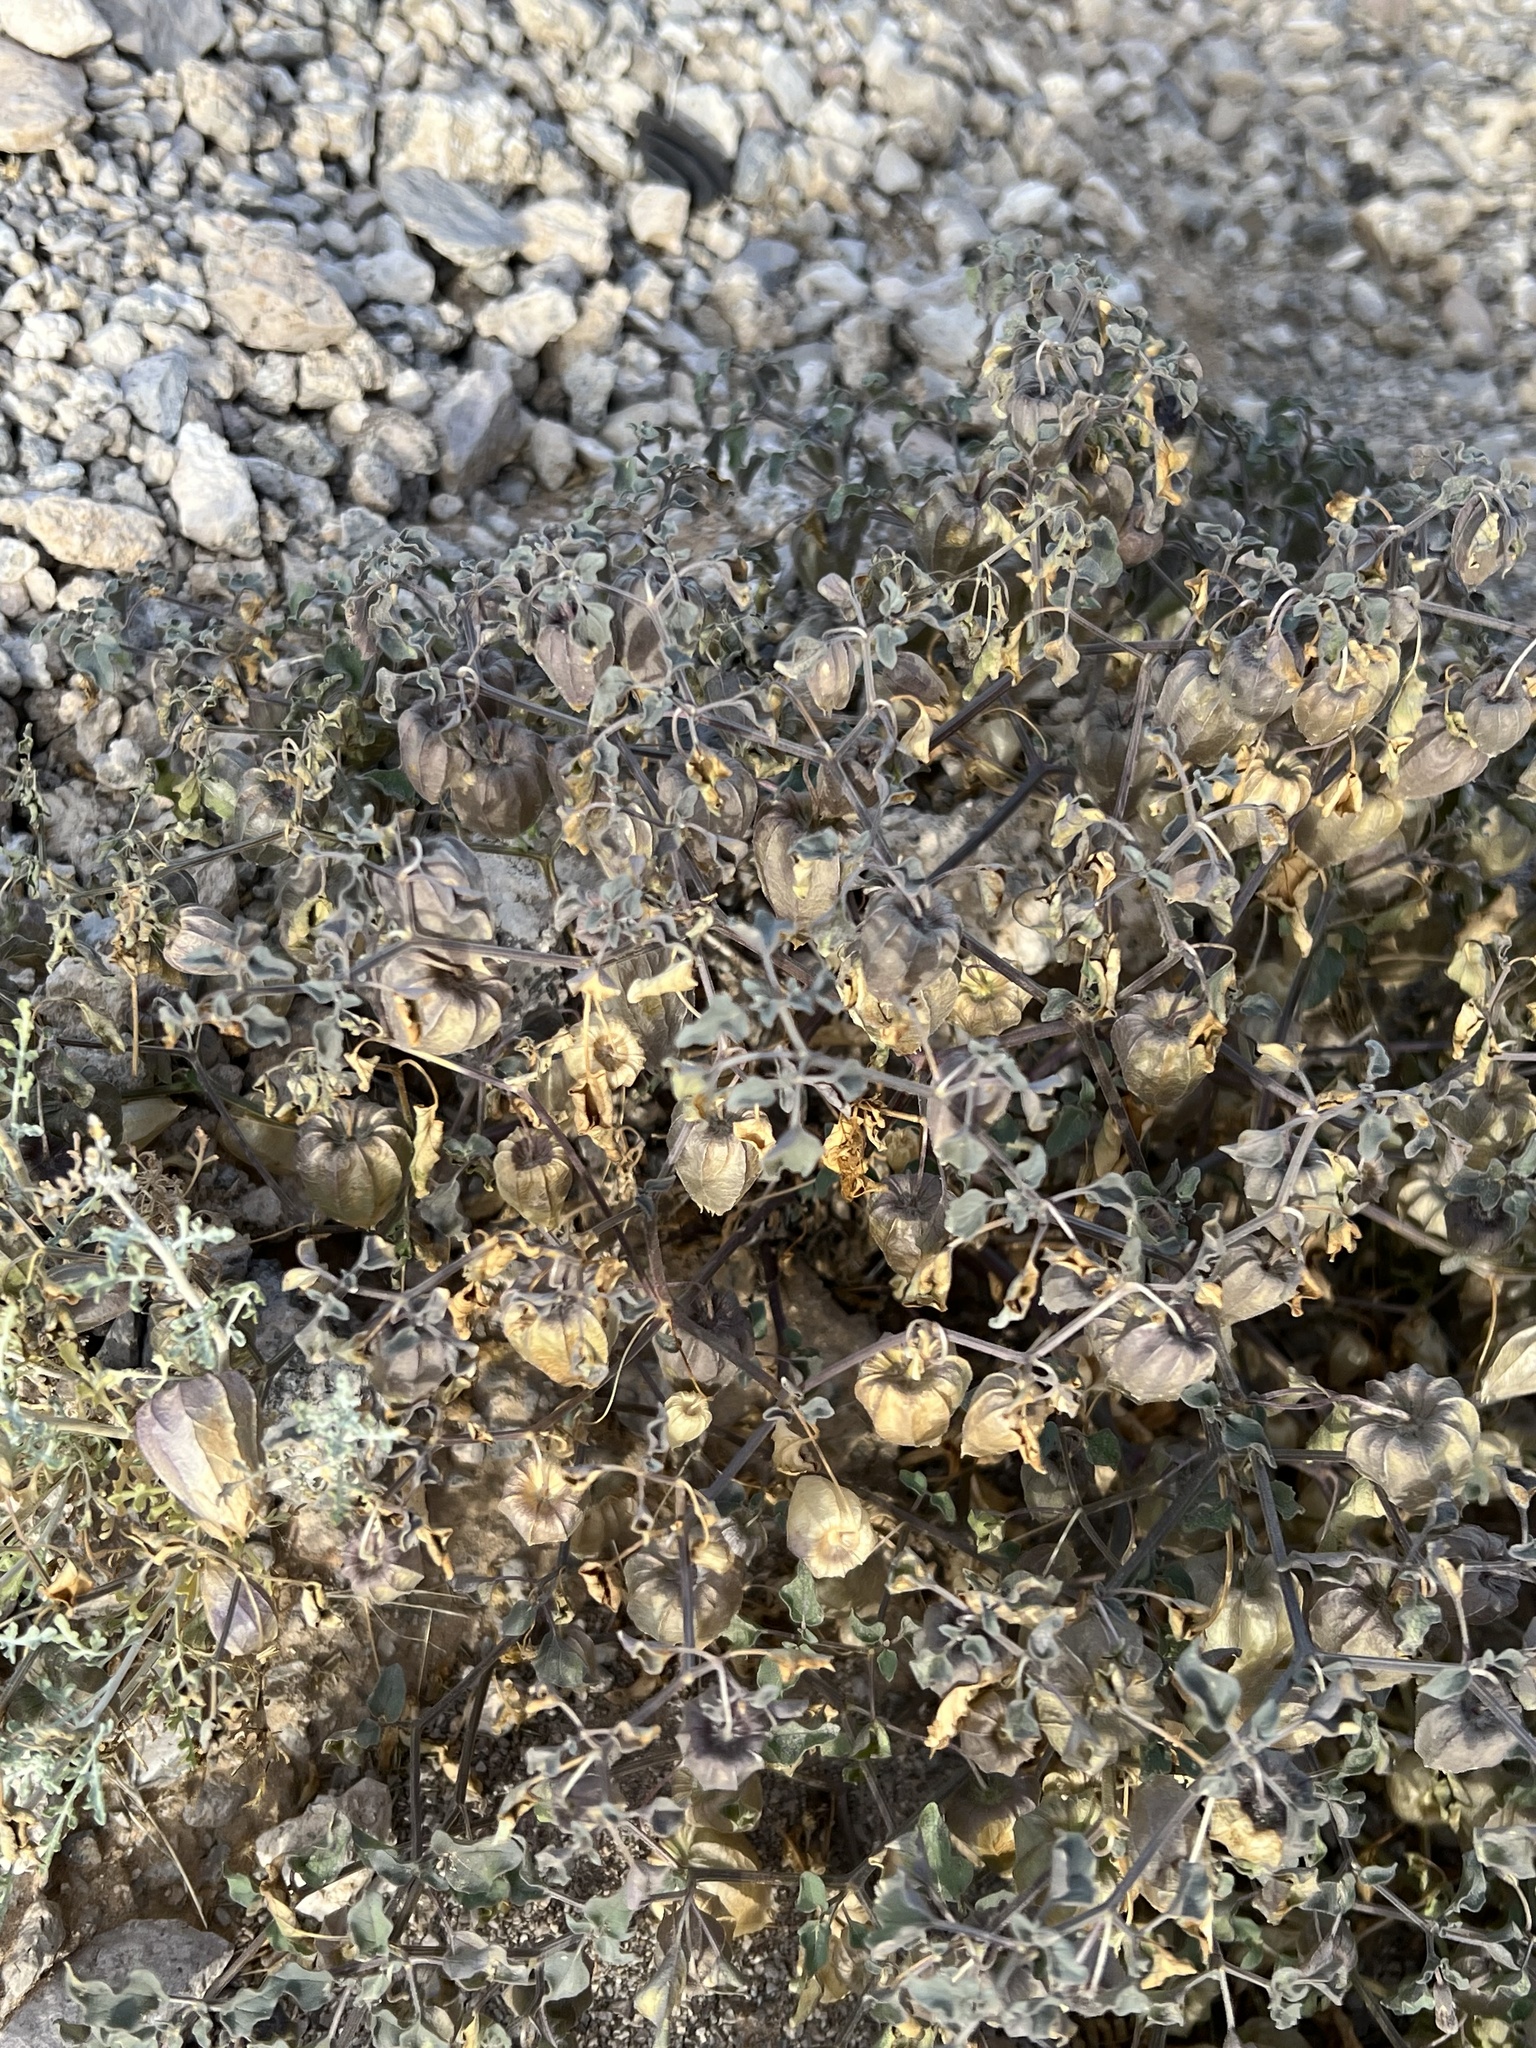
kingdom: Plantae
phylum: Tracheophyta
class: Magnoliopsida
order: Solanales
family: Solanaceae
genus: Physalis
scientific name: Physalis crassifolia
